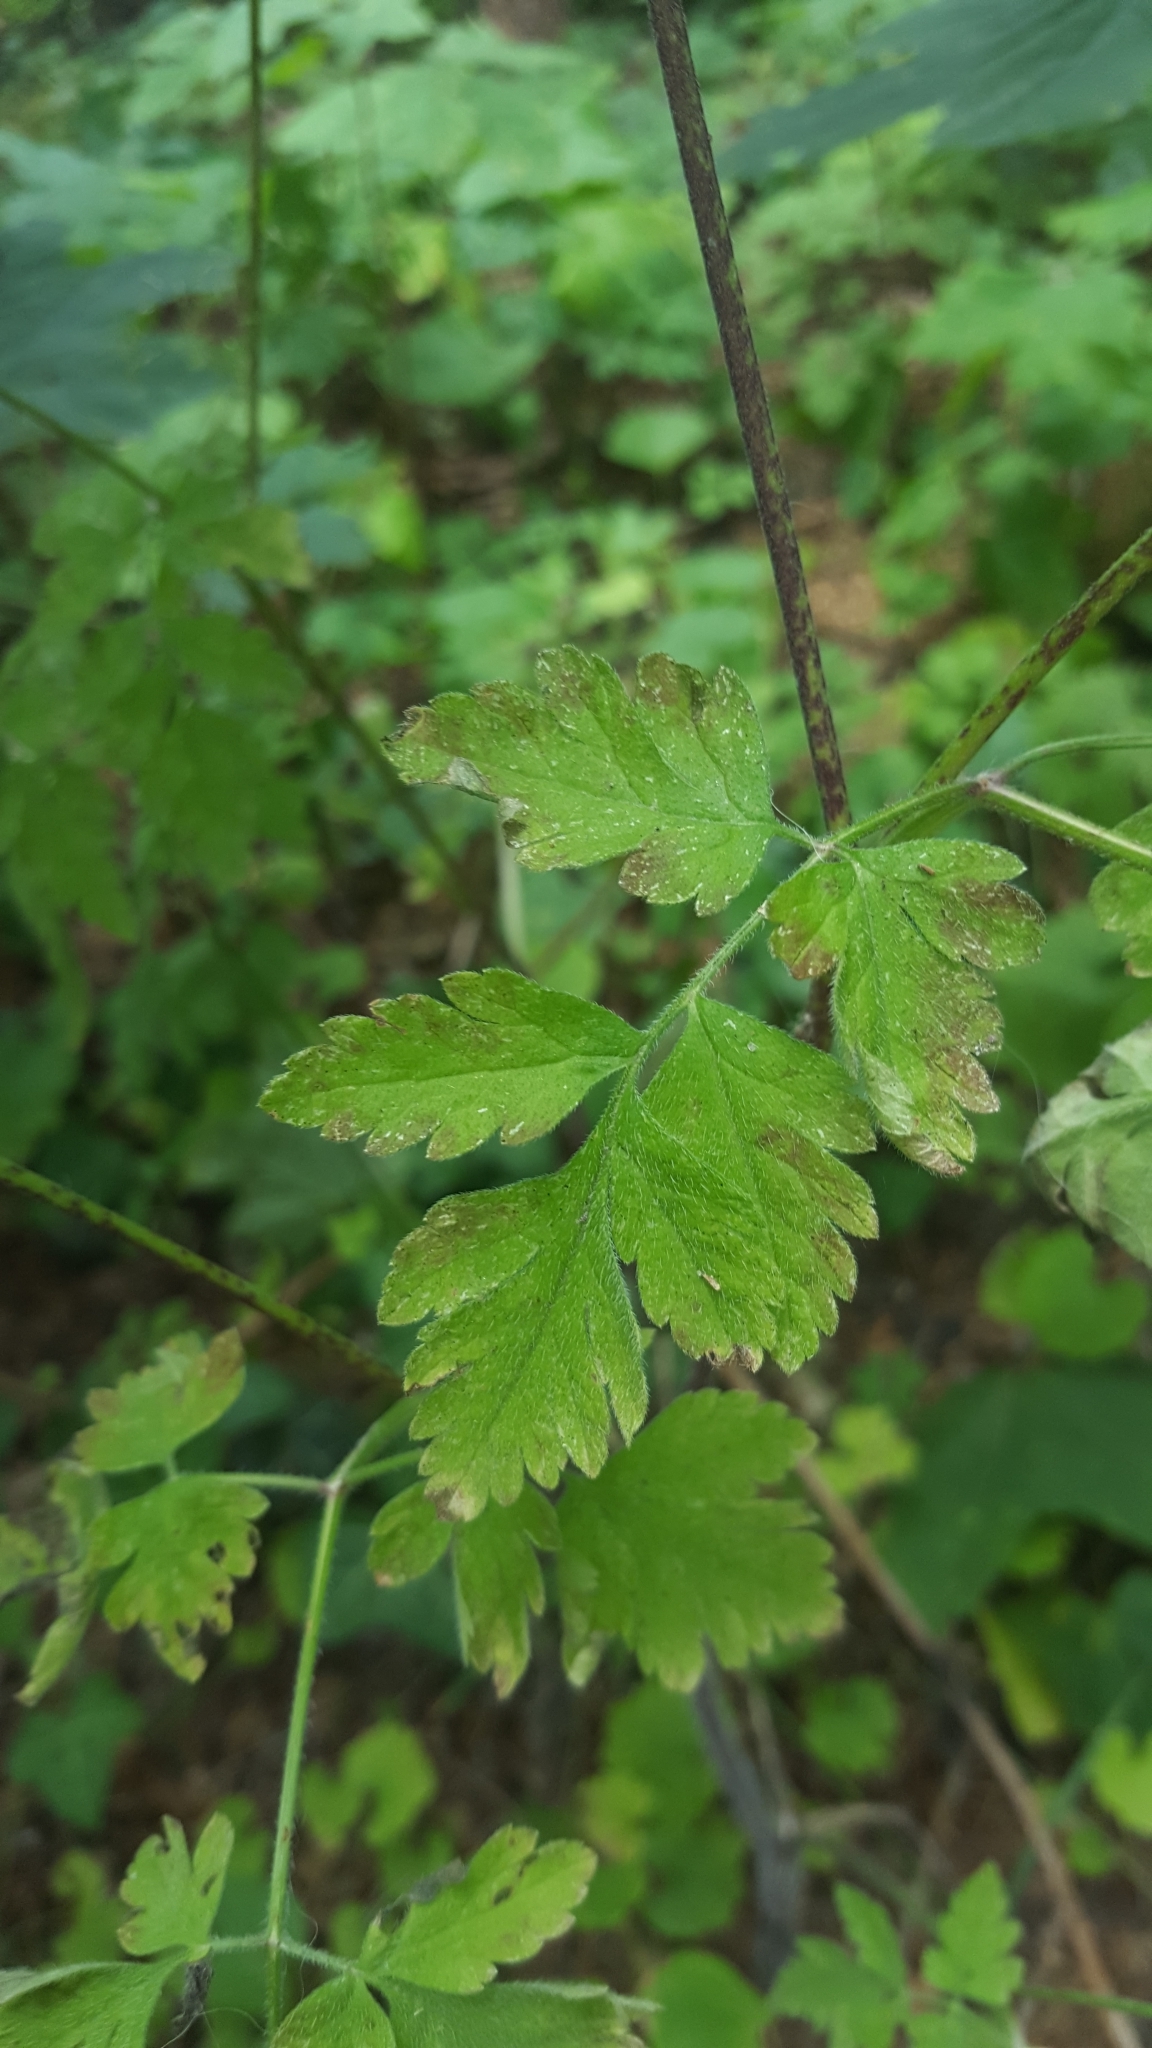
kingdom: Plantae
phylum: Tracheophyta
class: Magnoliopsida
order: Apiales
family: Apiaceae
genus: Chaerophyllum
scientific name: Chaerophyllum temulum
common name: Rough chervil
